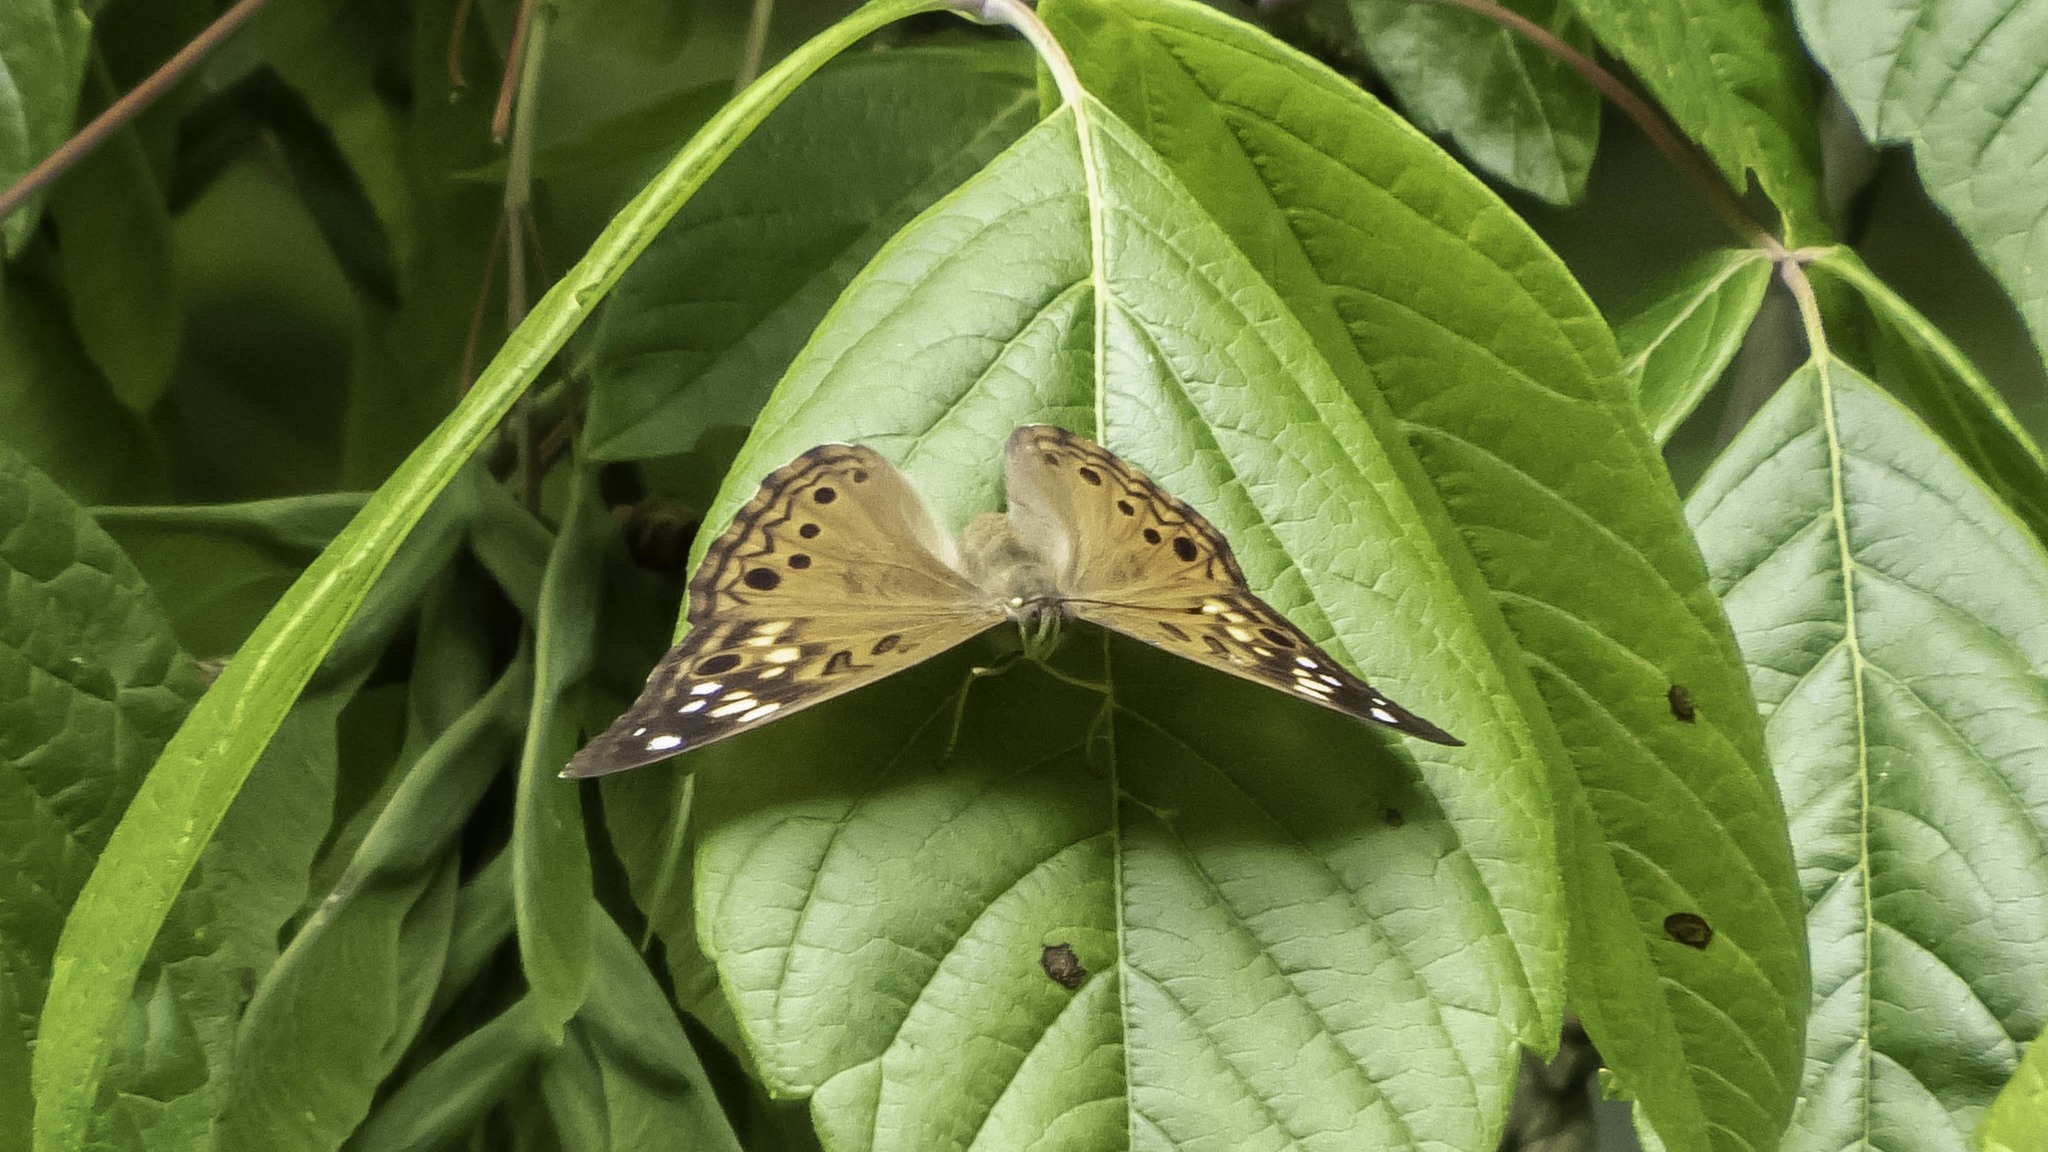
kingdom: Animalia
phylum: Arthropoda
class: Insecta
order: Lepidoptera
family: Nymphalidae
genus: Asterocampa
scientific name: Asterocampa celtis
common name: Hackberry emperor
